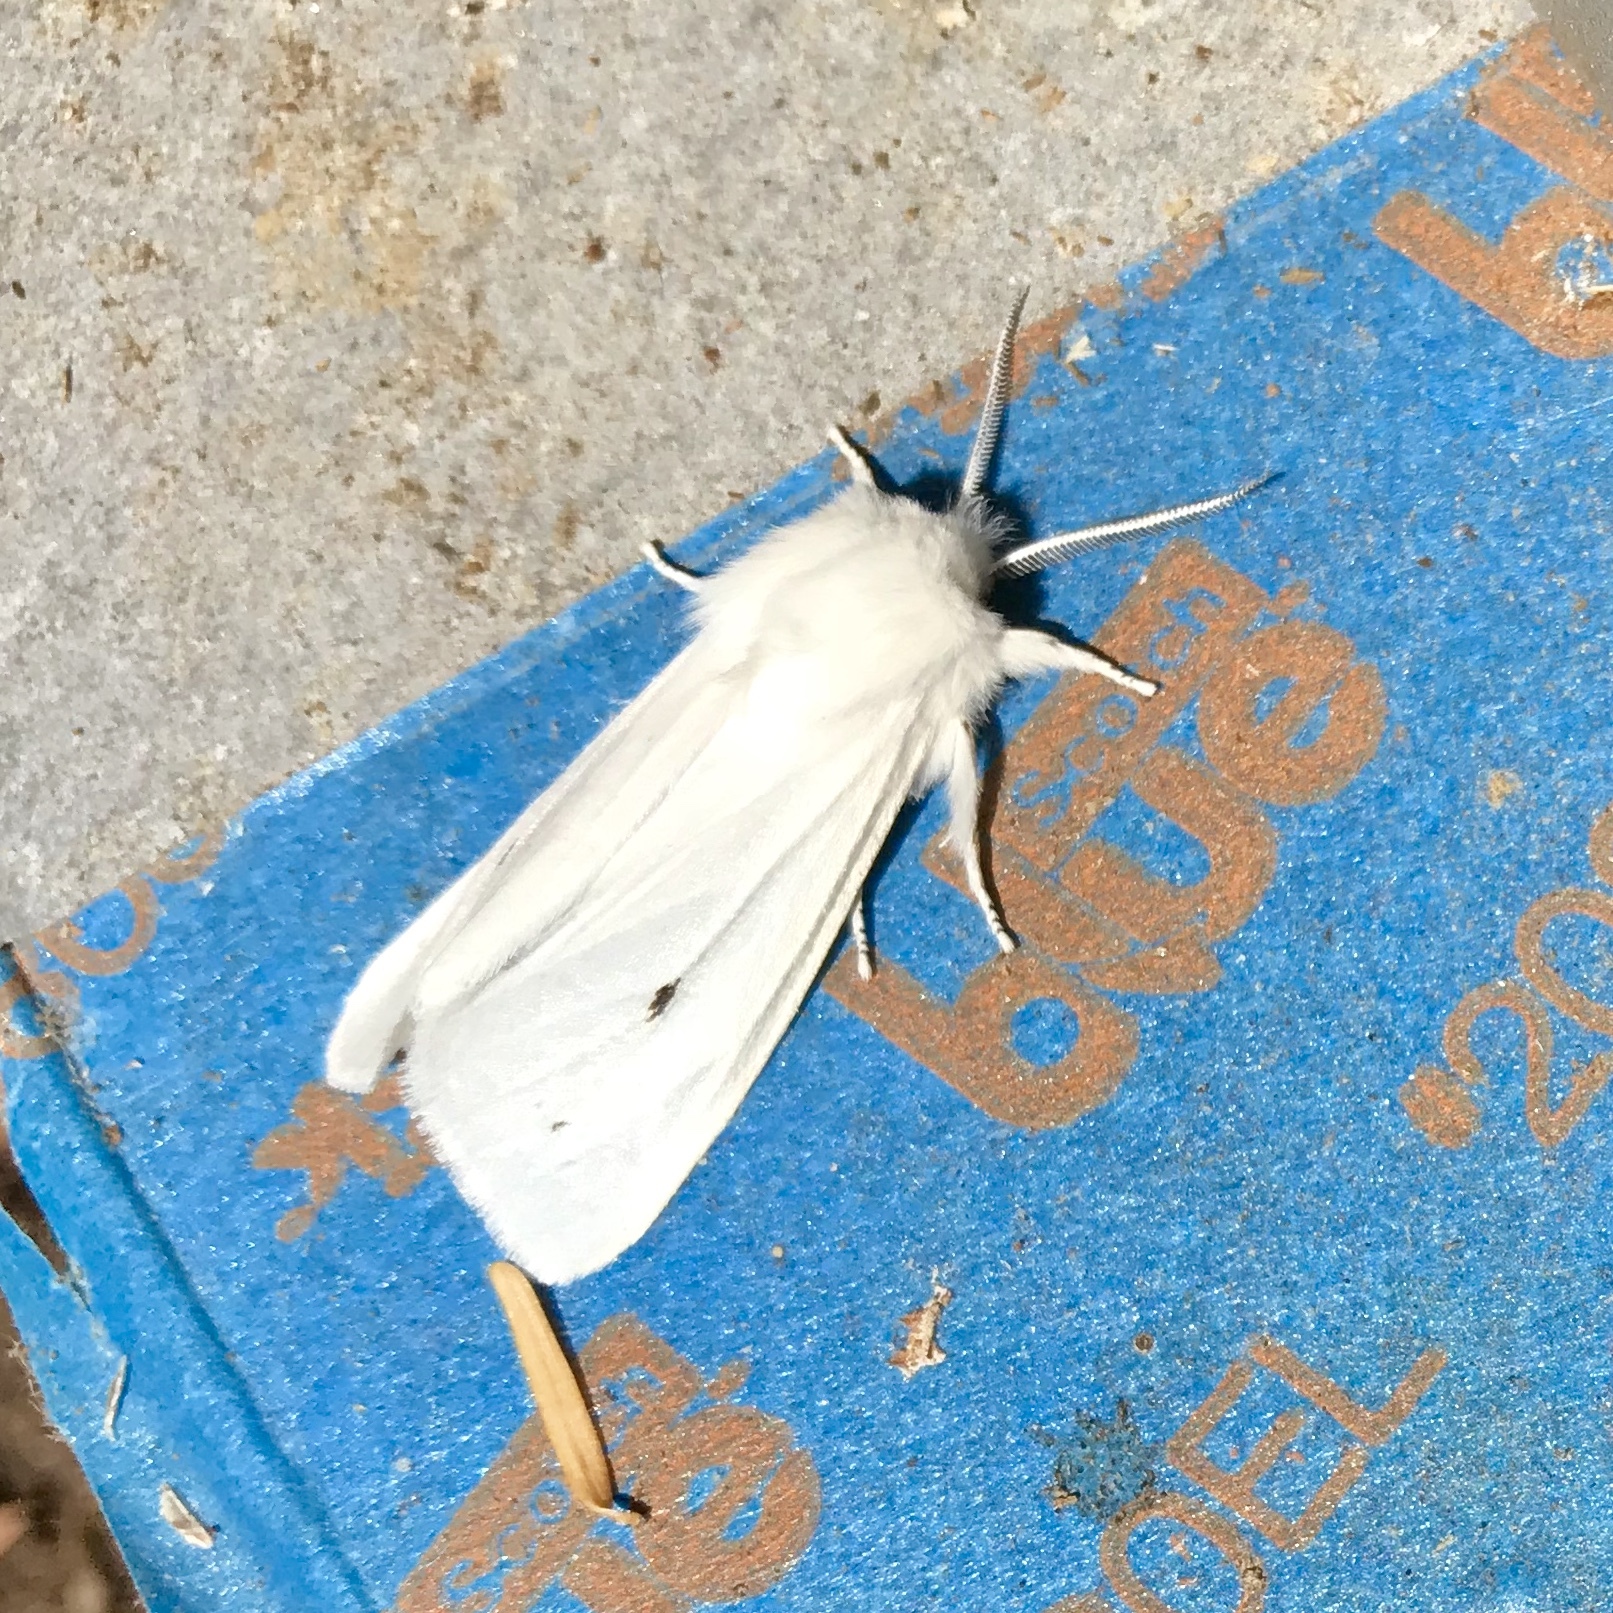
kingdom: Animalia
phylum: Arthropoda
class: Insecta
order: Lepidoptera
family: Erebidae
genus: Spilosoma
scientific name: Spilosoma virginica
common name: Virginia tiger moth
